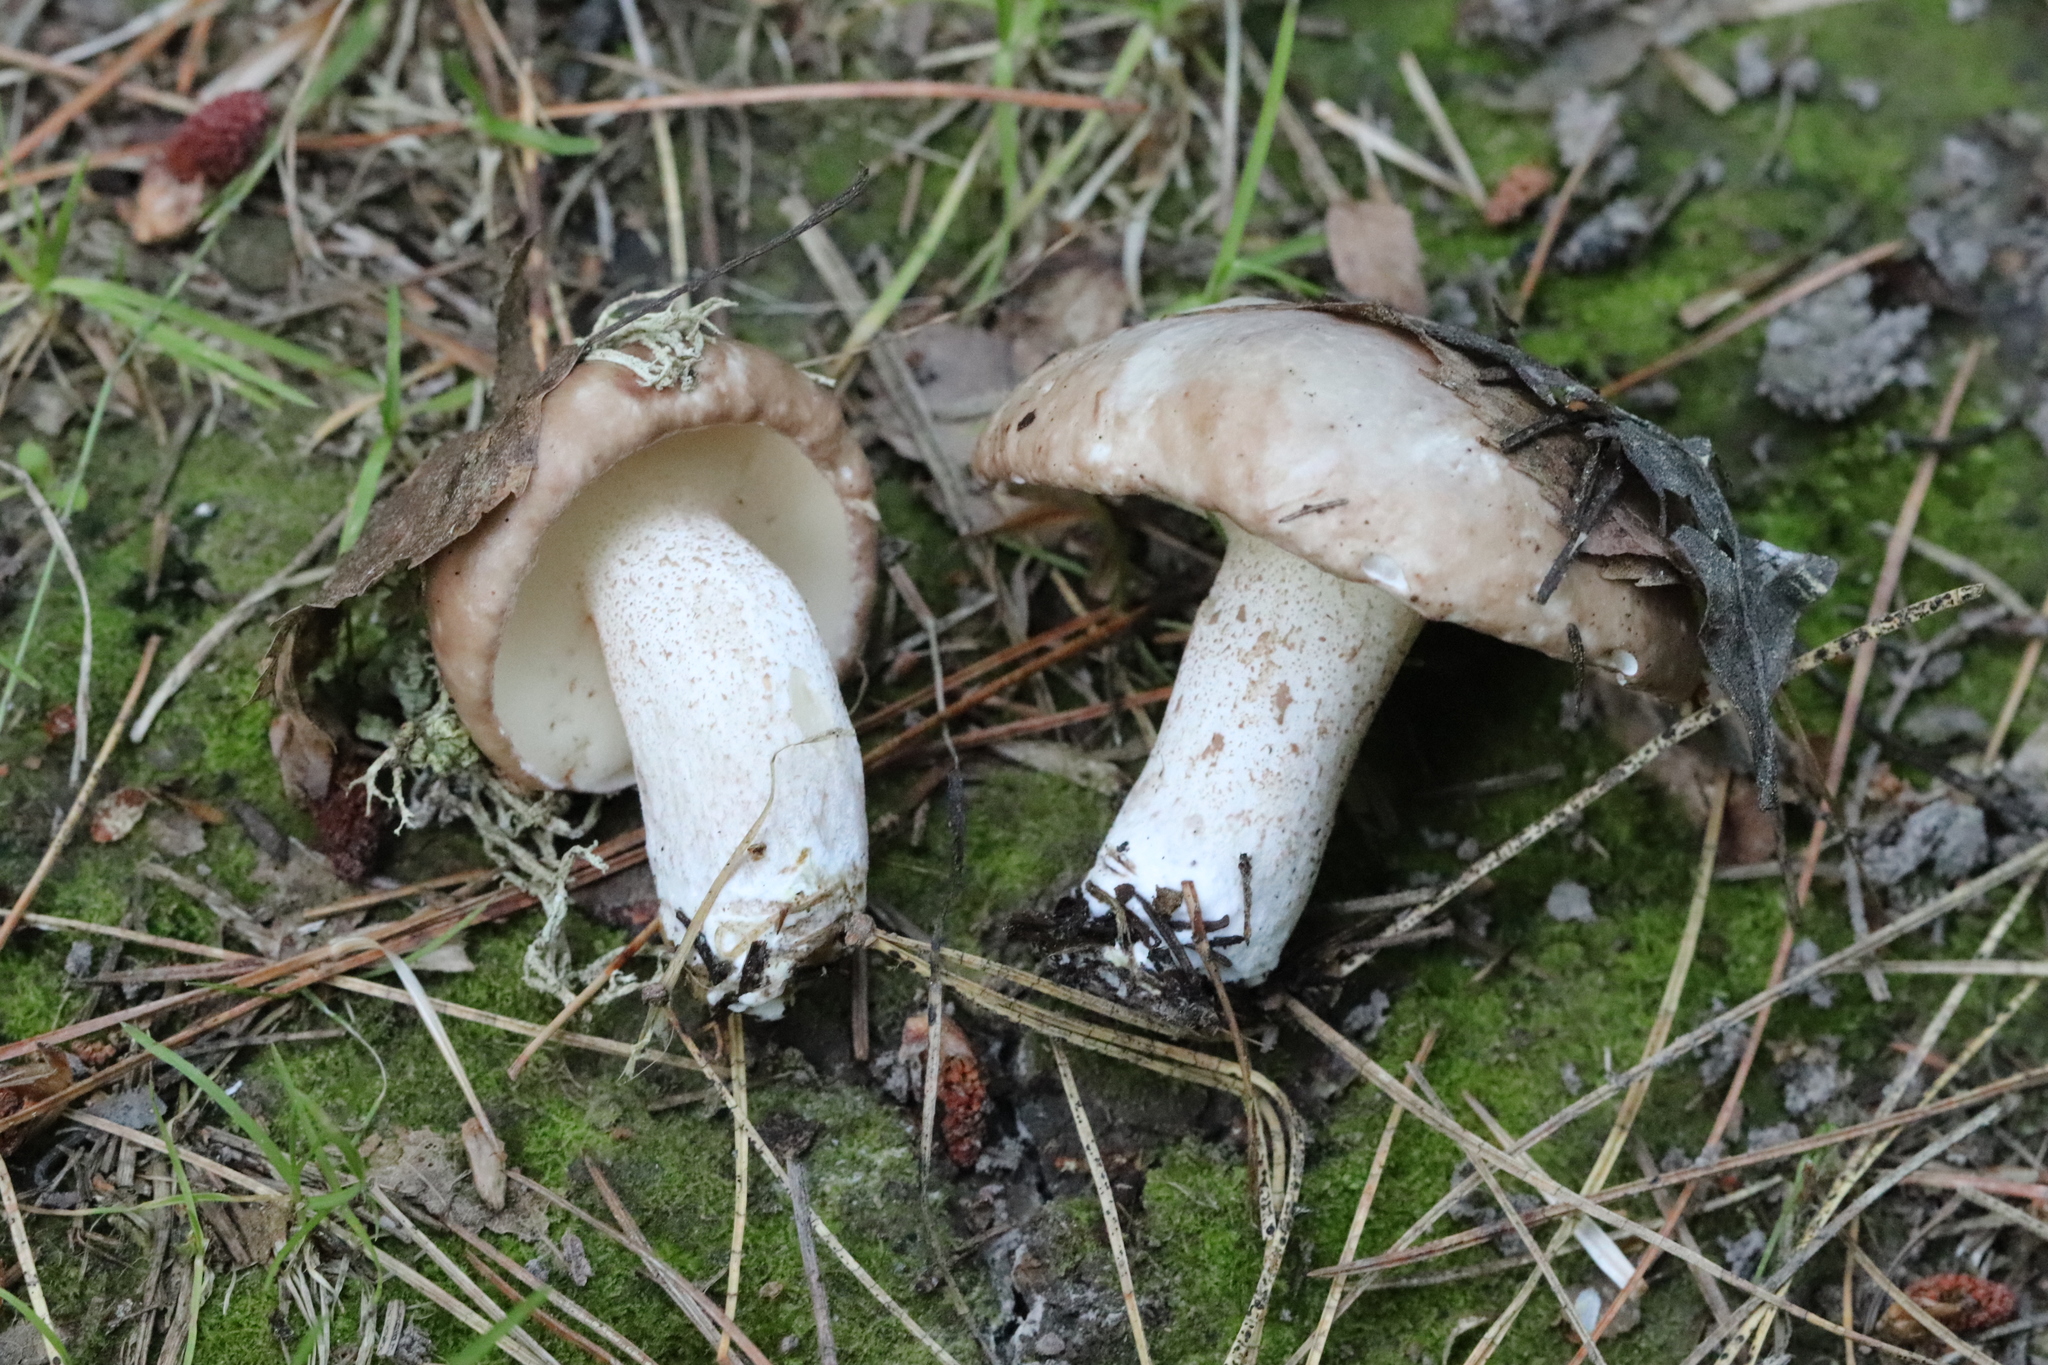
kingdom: Fungi
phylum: Basidiomycota
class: Agaricomycetes
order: Boletales
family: Suillaceae
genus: Suillus
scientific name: Suillus placidus
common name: Slippery white bolete
